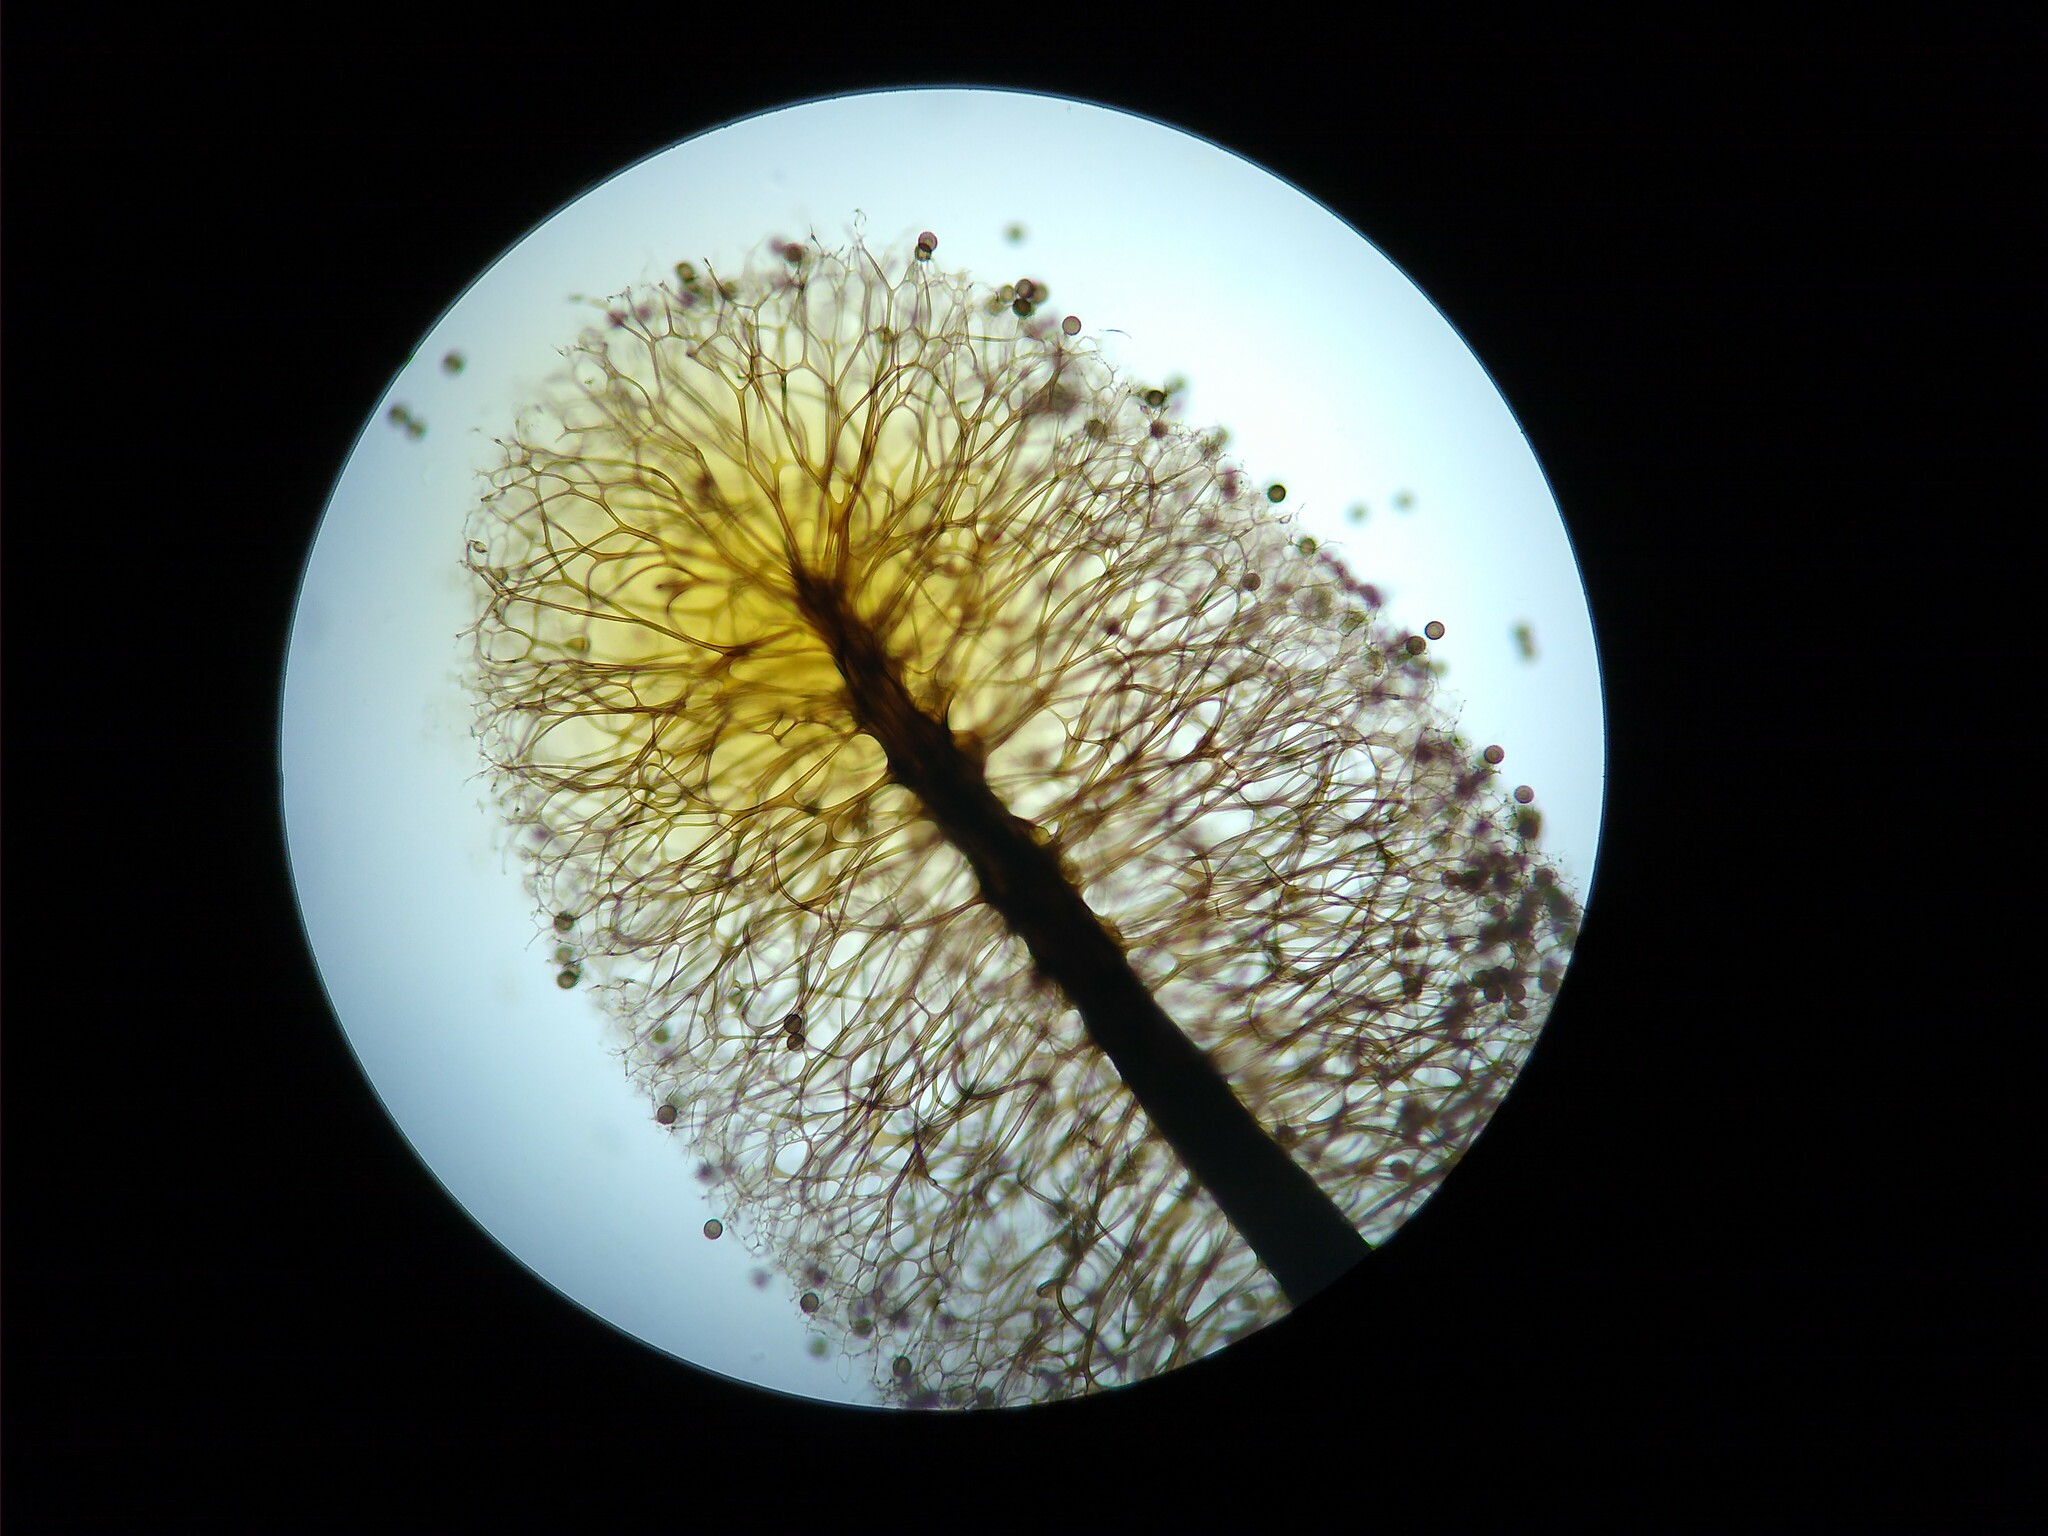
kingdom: Protozoa
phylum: Mycetozoa
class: Myxomycetes
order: Stemonitidales
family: Stemonitidaceae
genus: Lamproderma
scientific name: Lamproderma gracile
